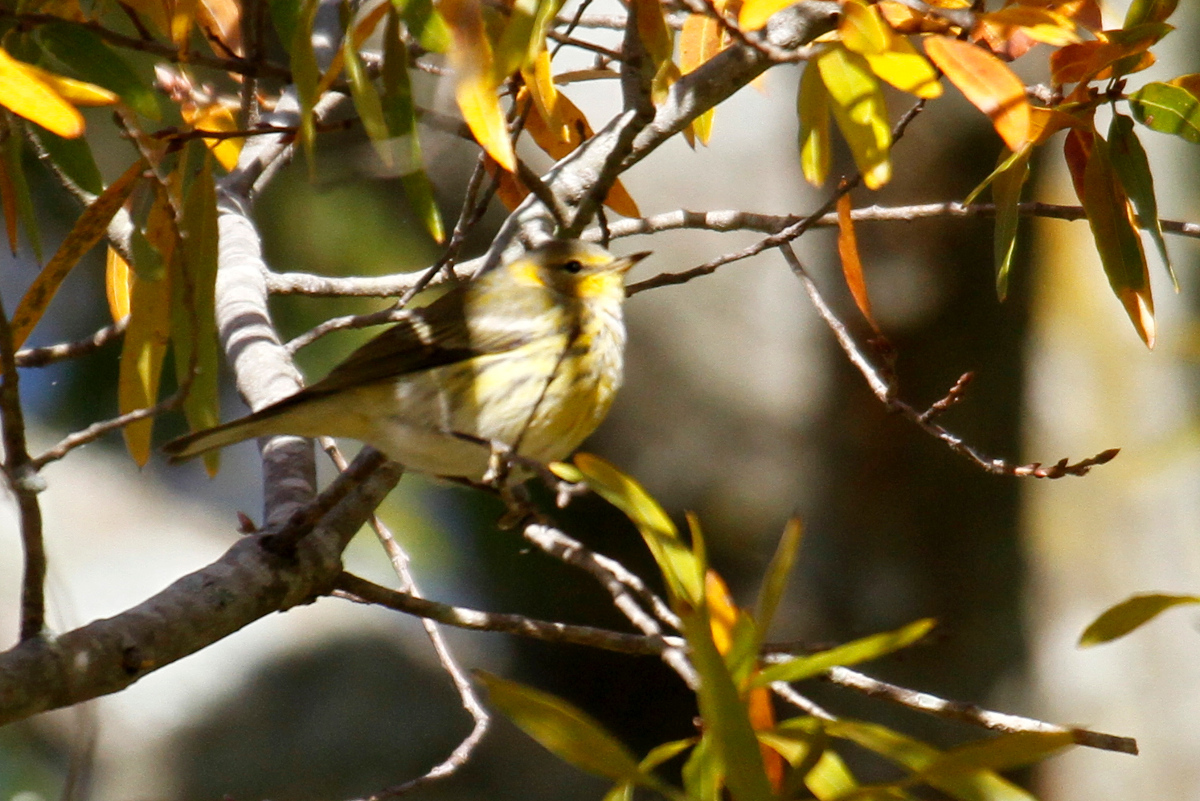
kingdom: Animalia
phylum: Chordata
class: Aves
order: Passeriformes
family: Parulidae
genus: Setophaga
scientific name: Setophaga tigrina
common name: Cape may warbler
